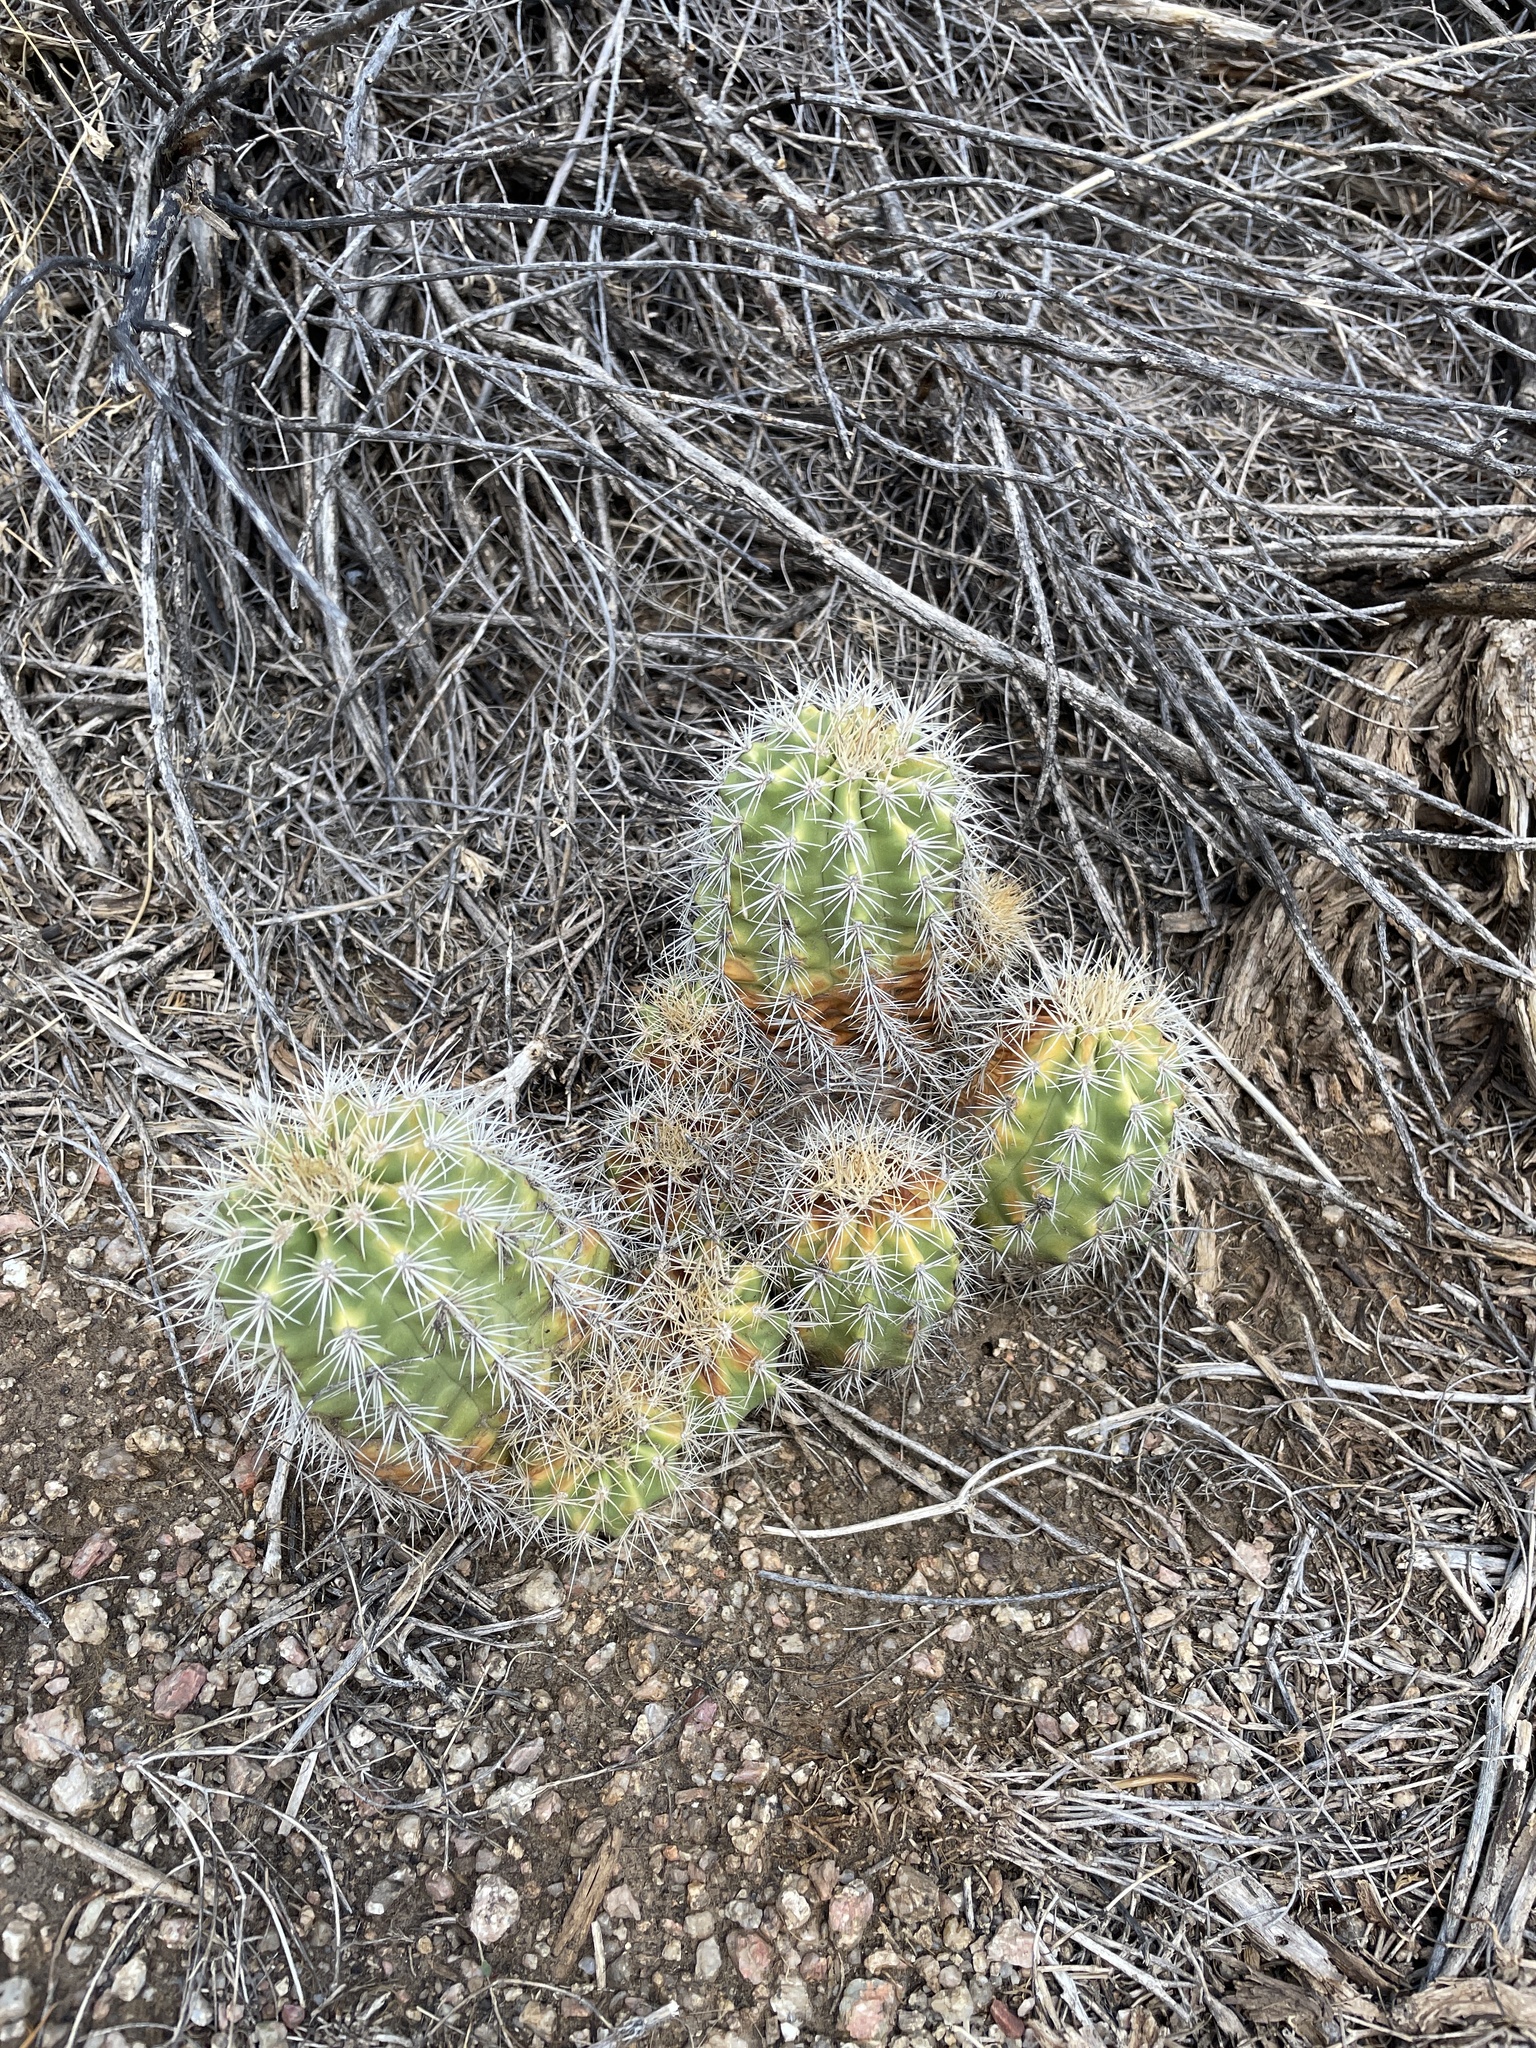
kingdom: Plantae
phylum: Tracheophyta
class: Magnoliopsida
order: Caryophyllales
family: Cactaceae
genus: Echinocereus
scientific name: Echinocereus coccineus
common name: Scarlet hedgehog cactus
